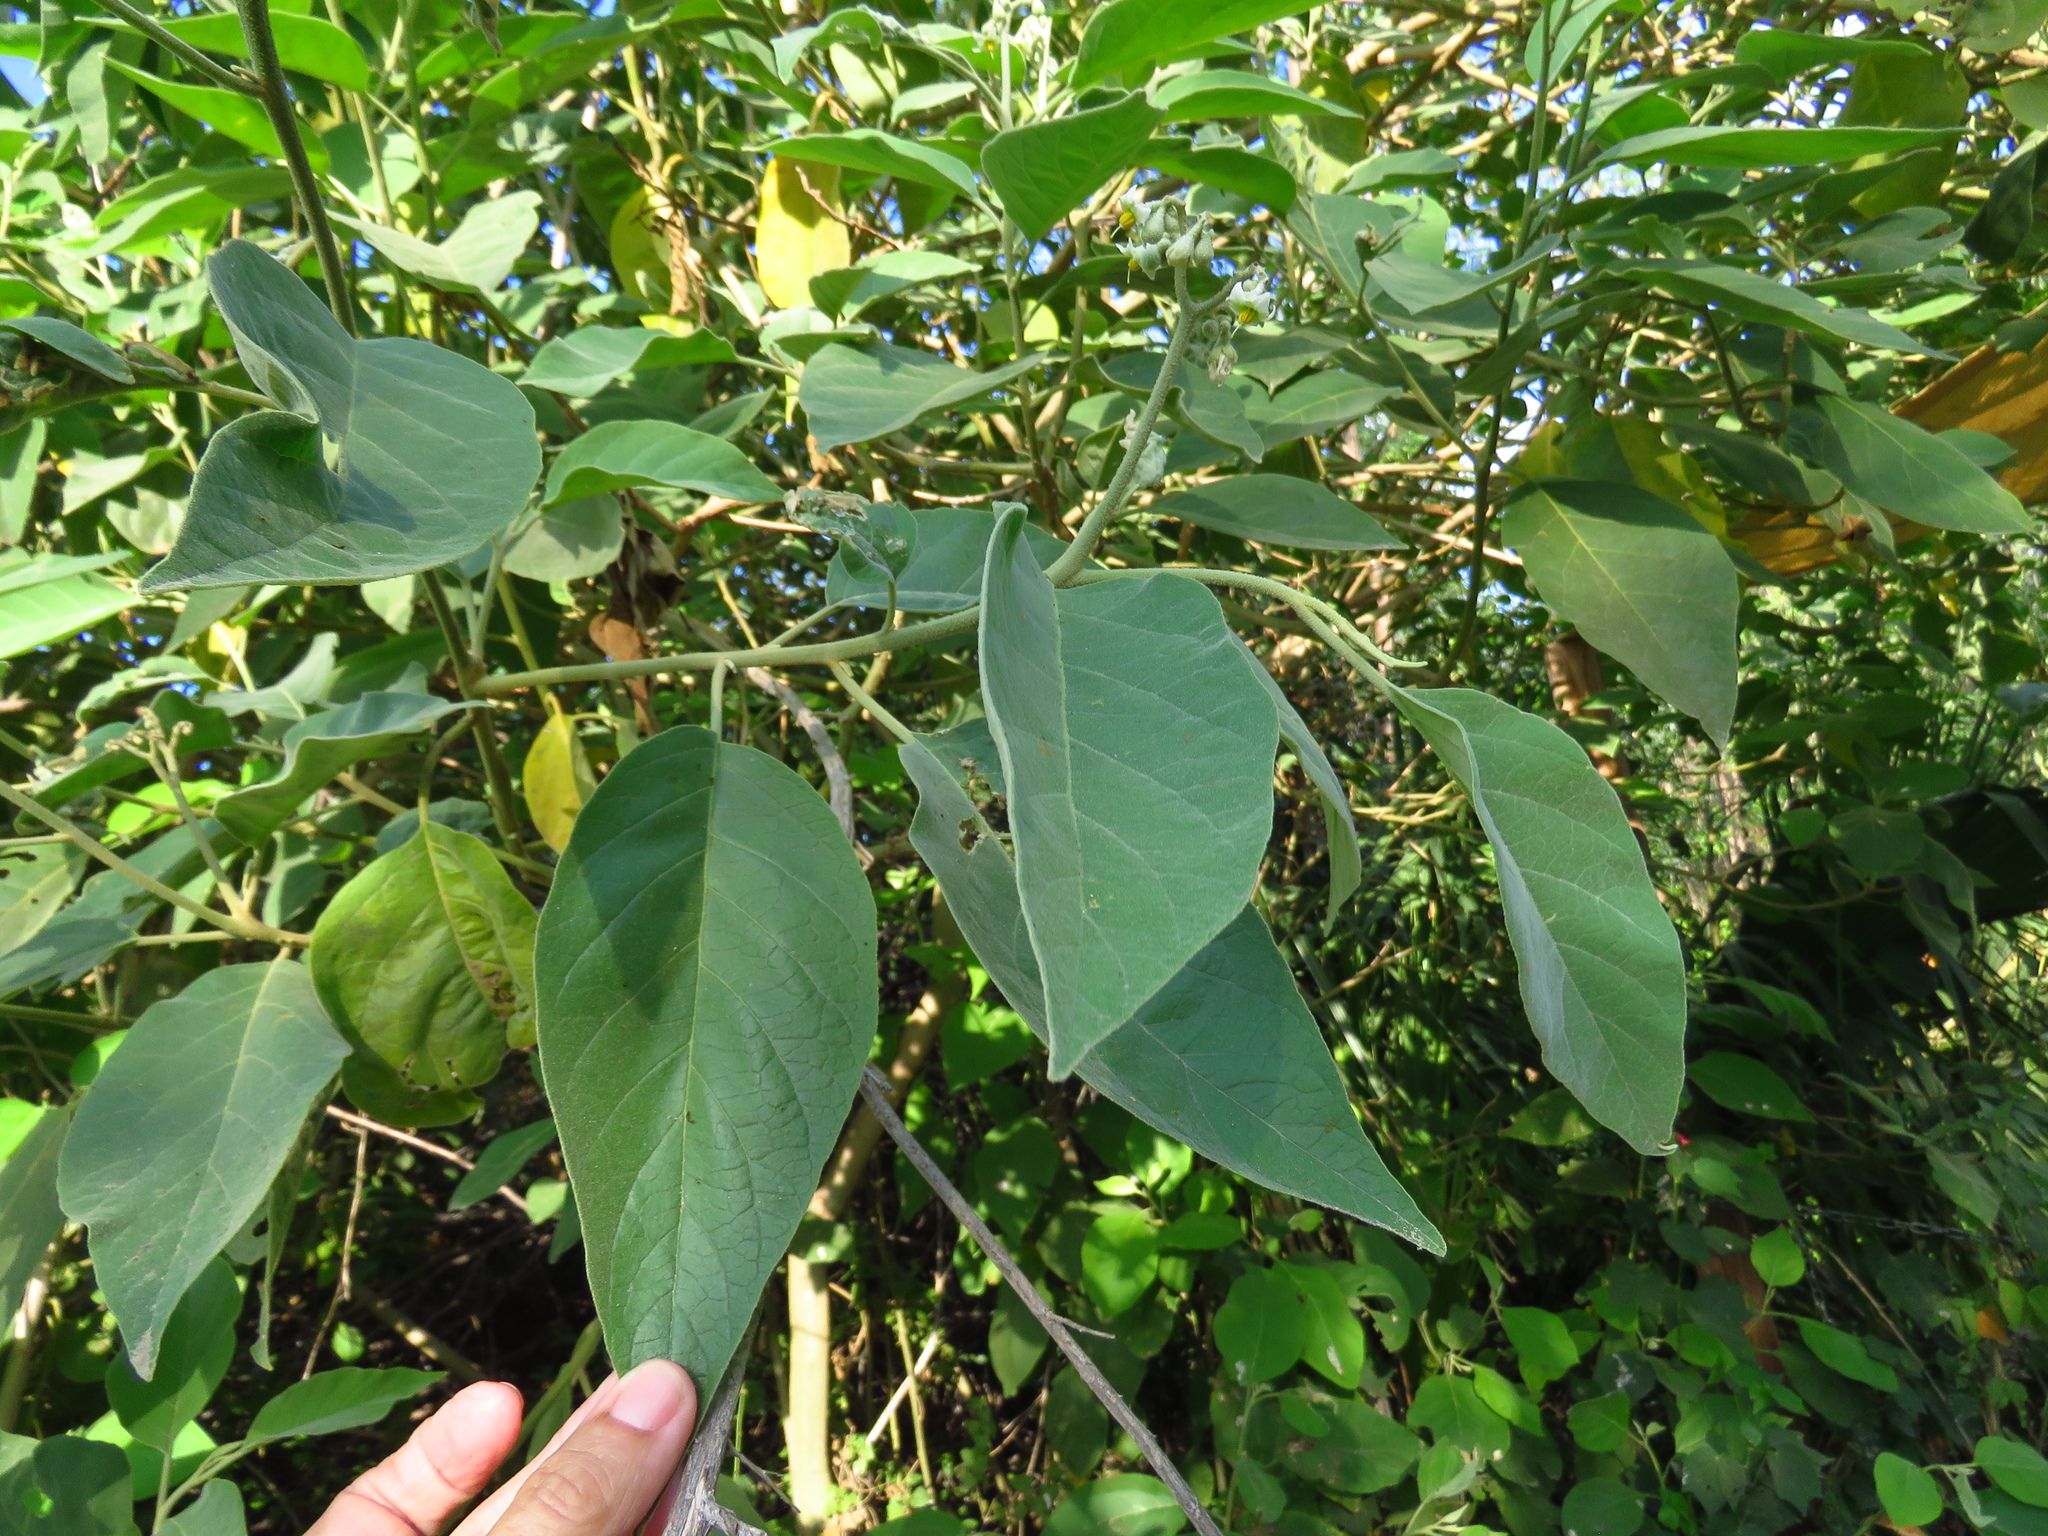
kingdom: Plantae
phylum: Tracheophyta
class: Magnoliopsida
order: Solanales
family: Solanaceae
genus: Solanum
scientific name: Solanum erianthum
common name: Tobacco-tree
